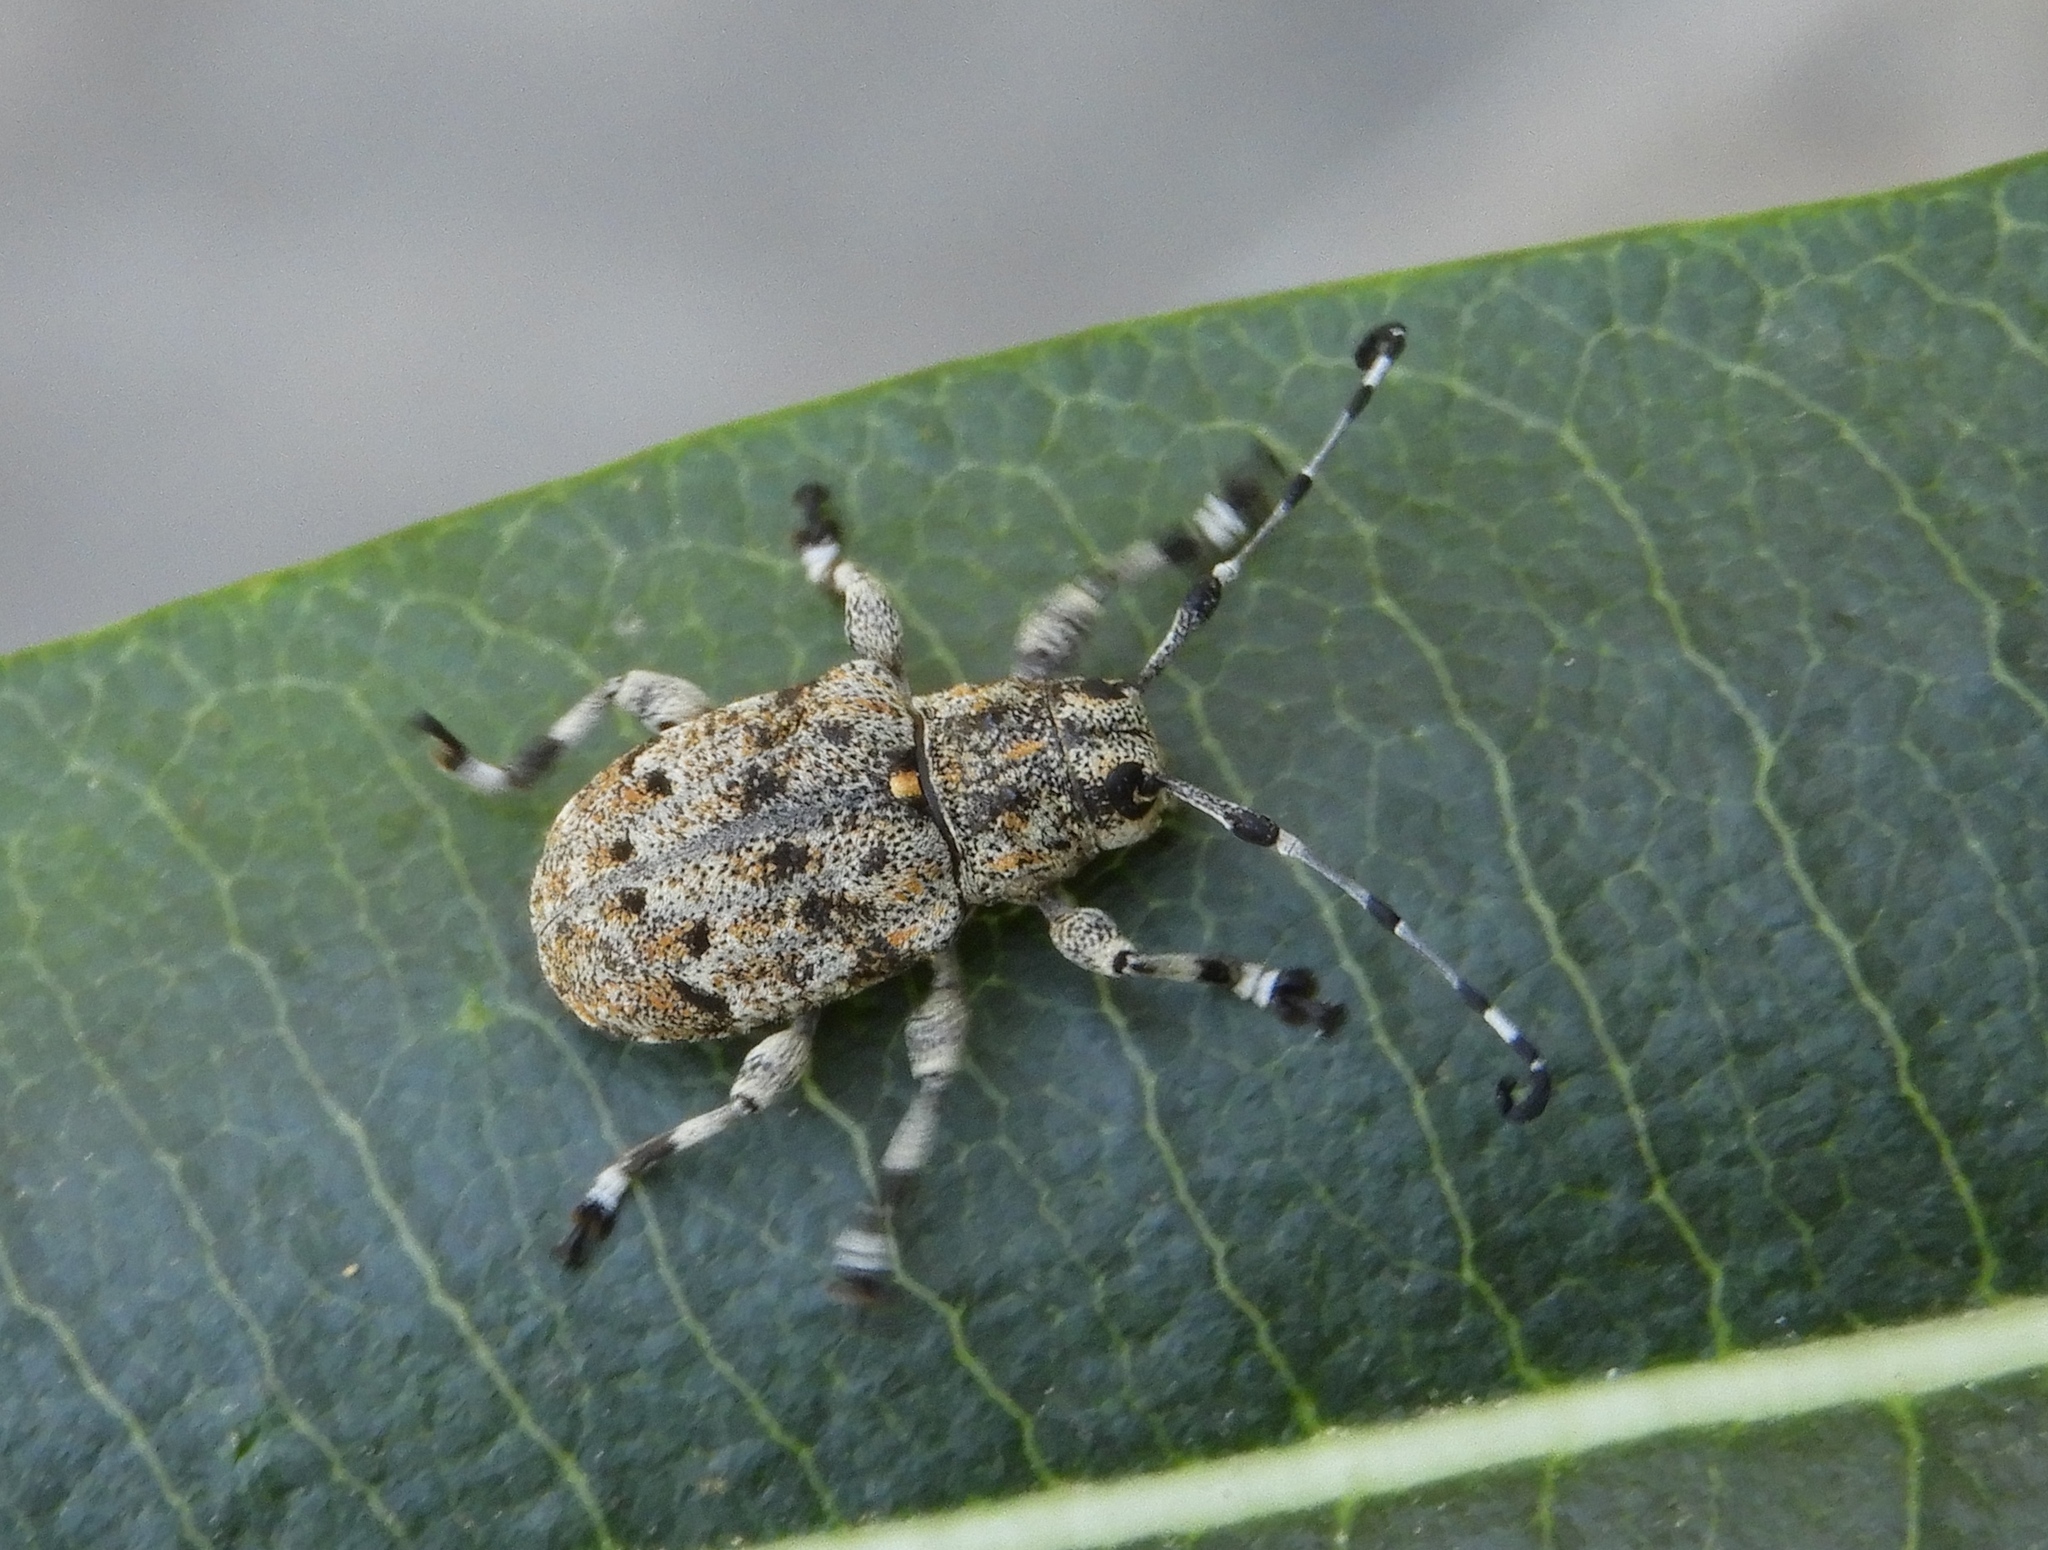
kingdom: Animalia
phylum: Arthropoda
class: Insecta
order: Coleoptera
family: Cerambycidae
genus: Thryallis
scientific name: Thryallis noguerai
